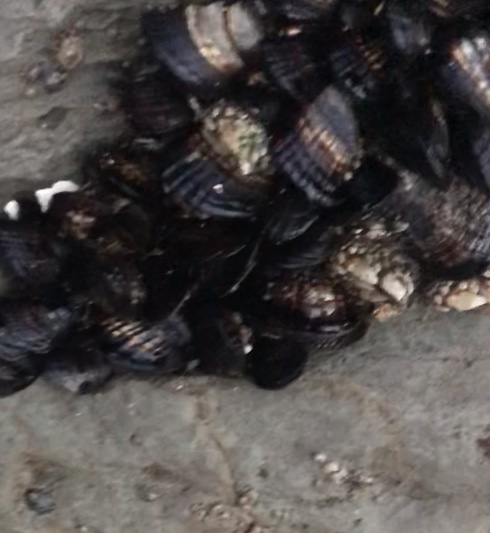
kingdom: Animalia
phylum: Mollusca
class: Bivalvia
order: Mytilida
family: Mytilidae
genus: Mytilus
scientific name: Mytilus californianus
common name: California mussel
